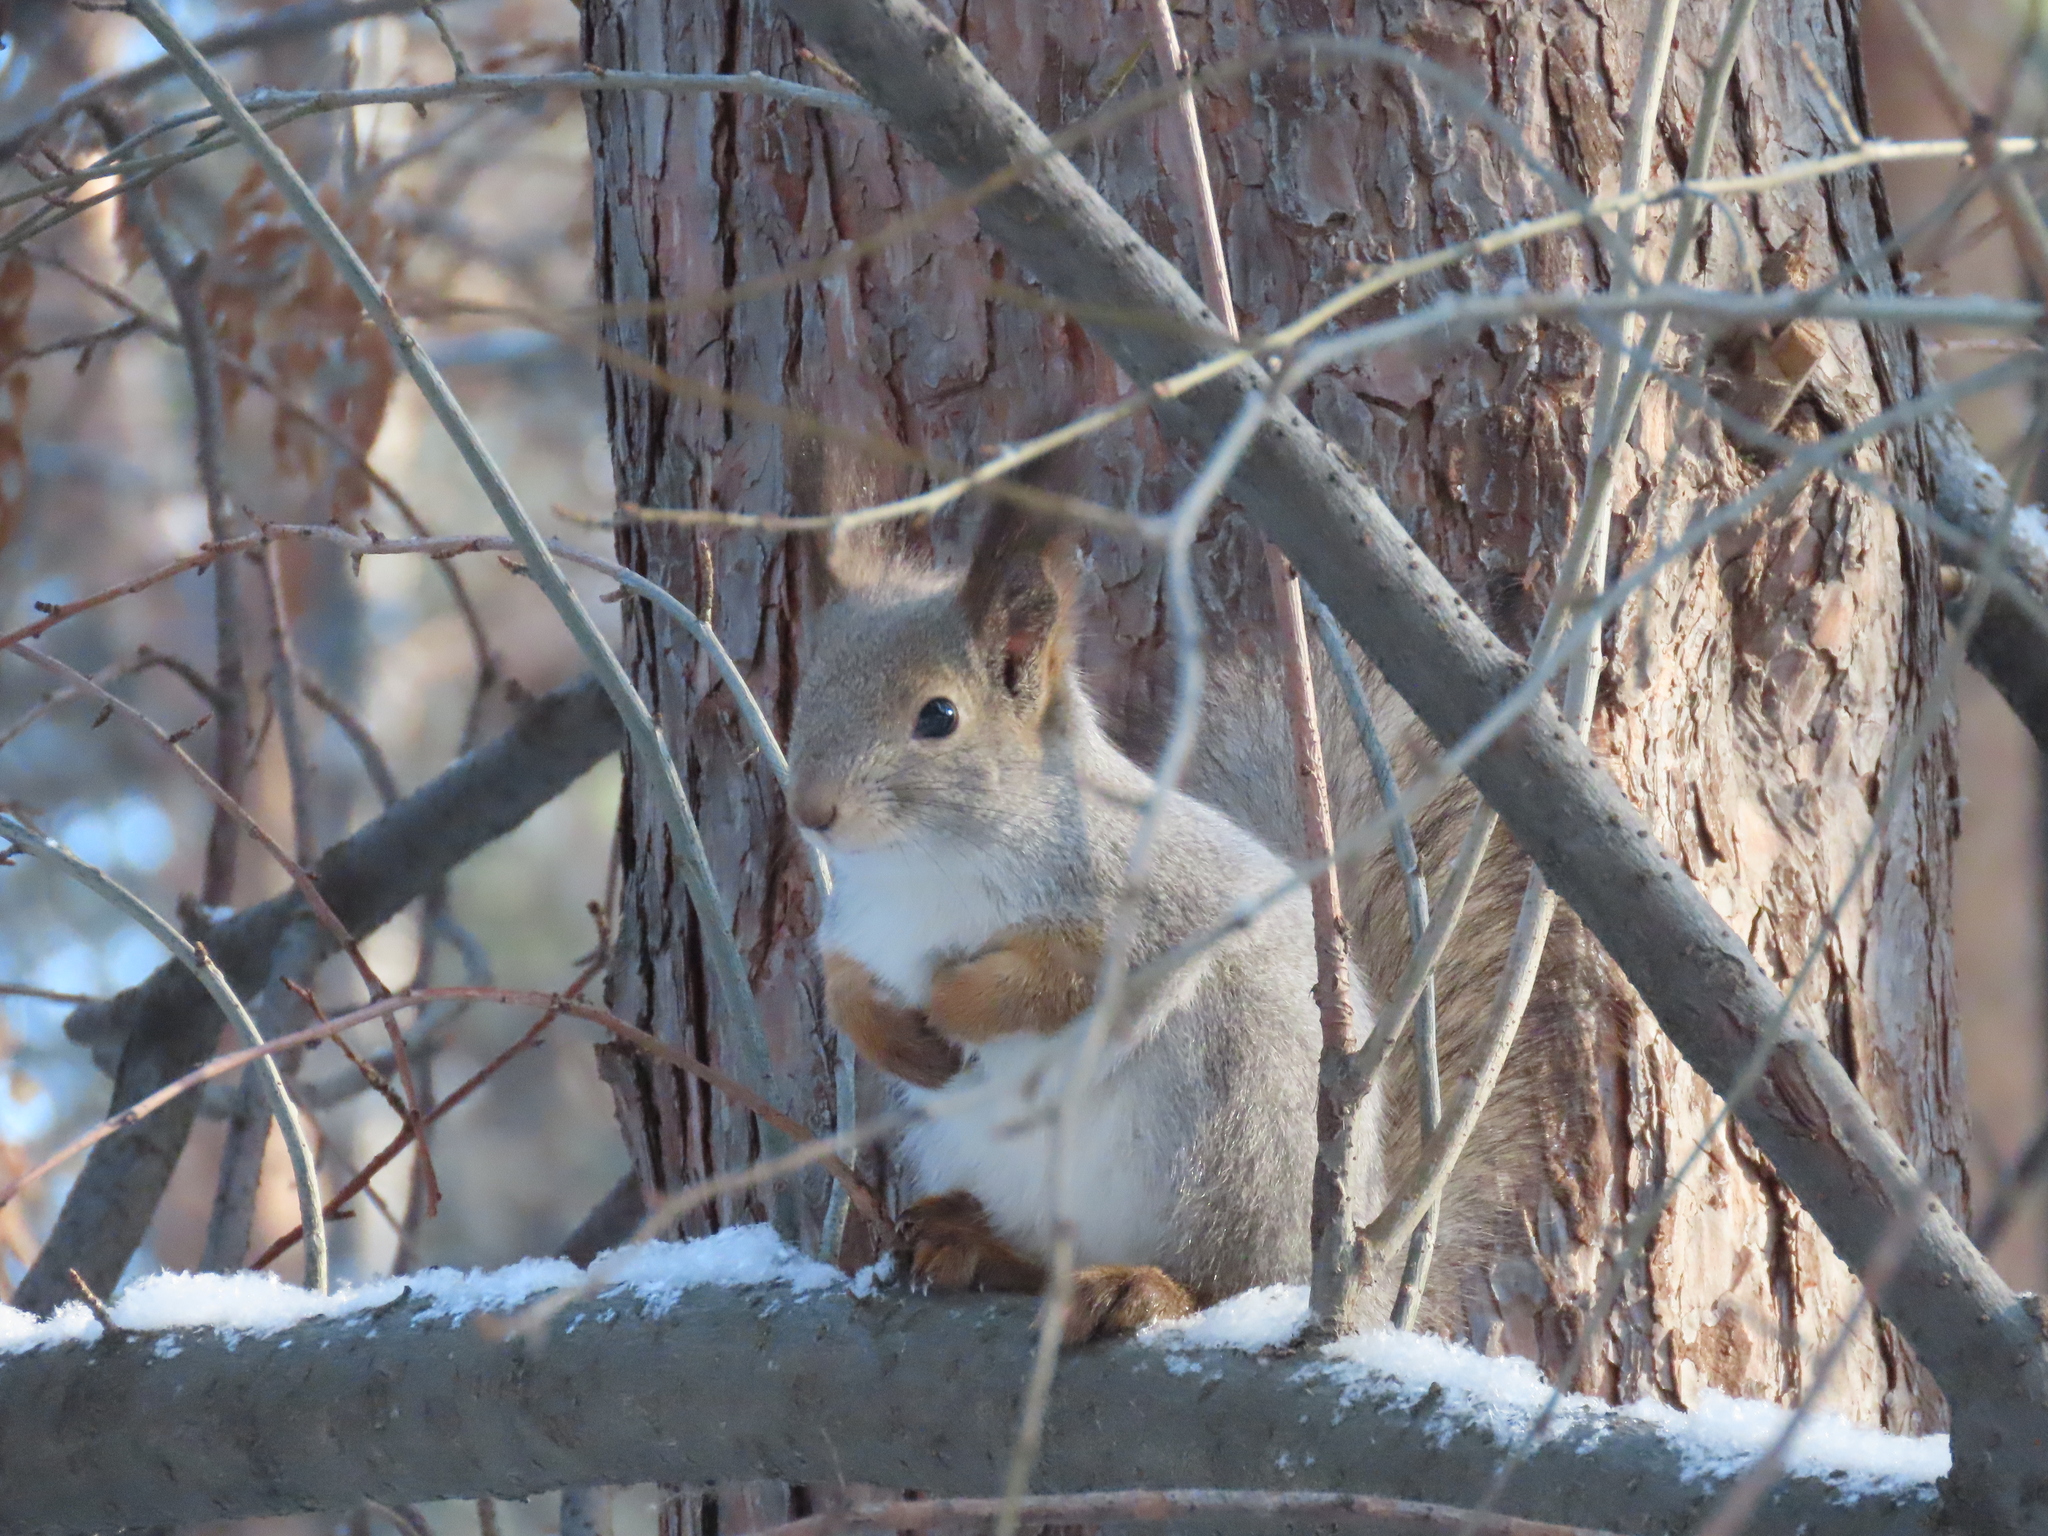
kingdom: Animalia
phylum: Chordata
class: Mammalia
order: Rodentia
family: Sciuridae
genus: Sciurus
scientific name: Sciurus vulgaris
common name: Eurasian red squirrel
